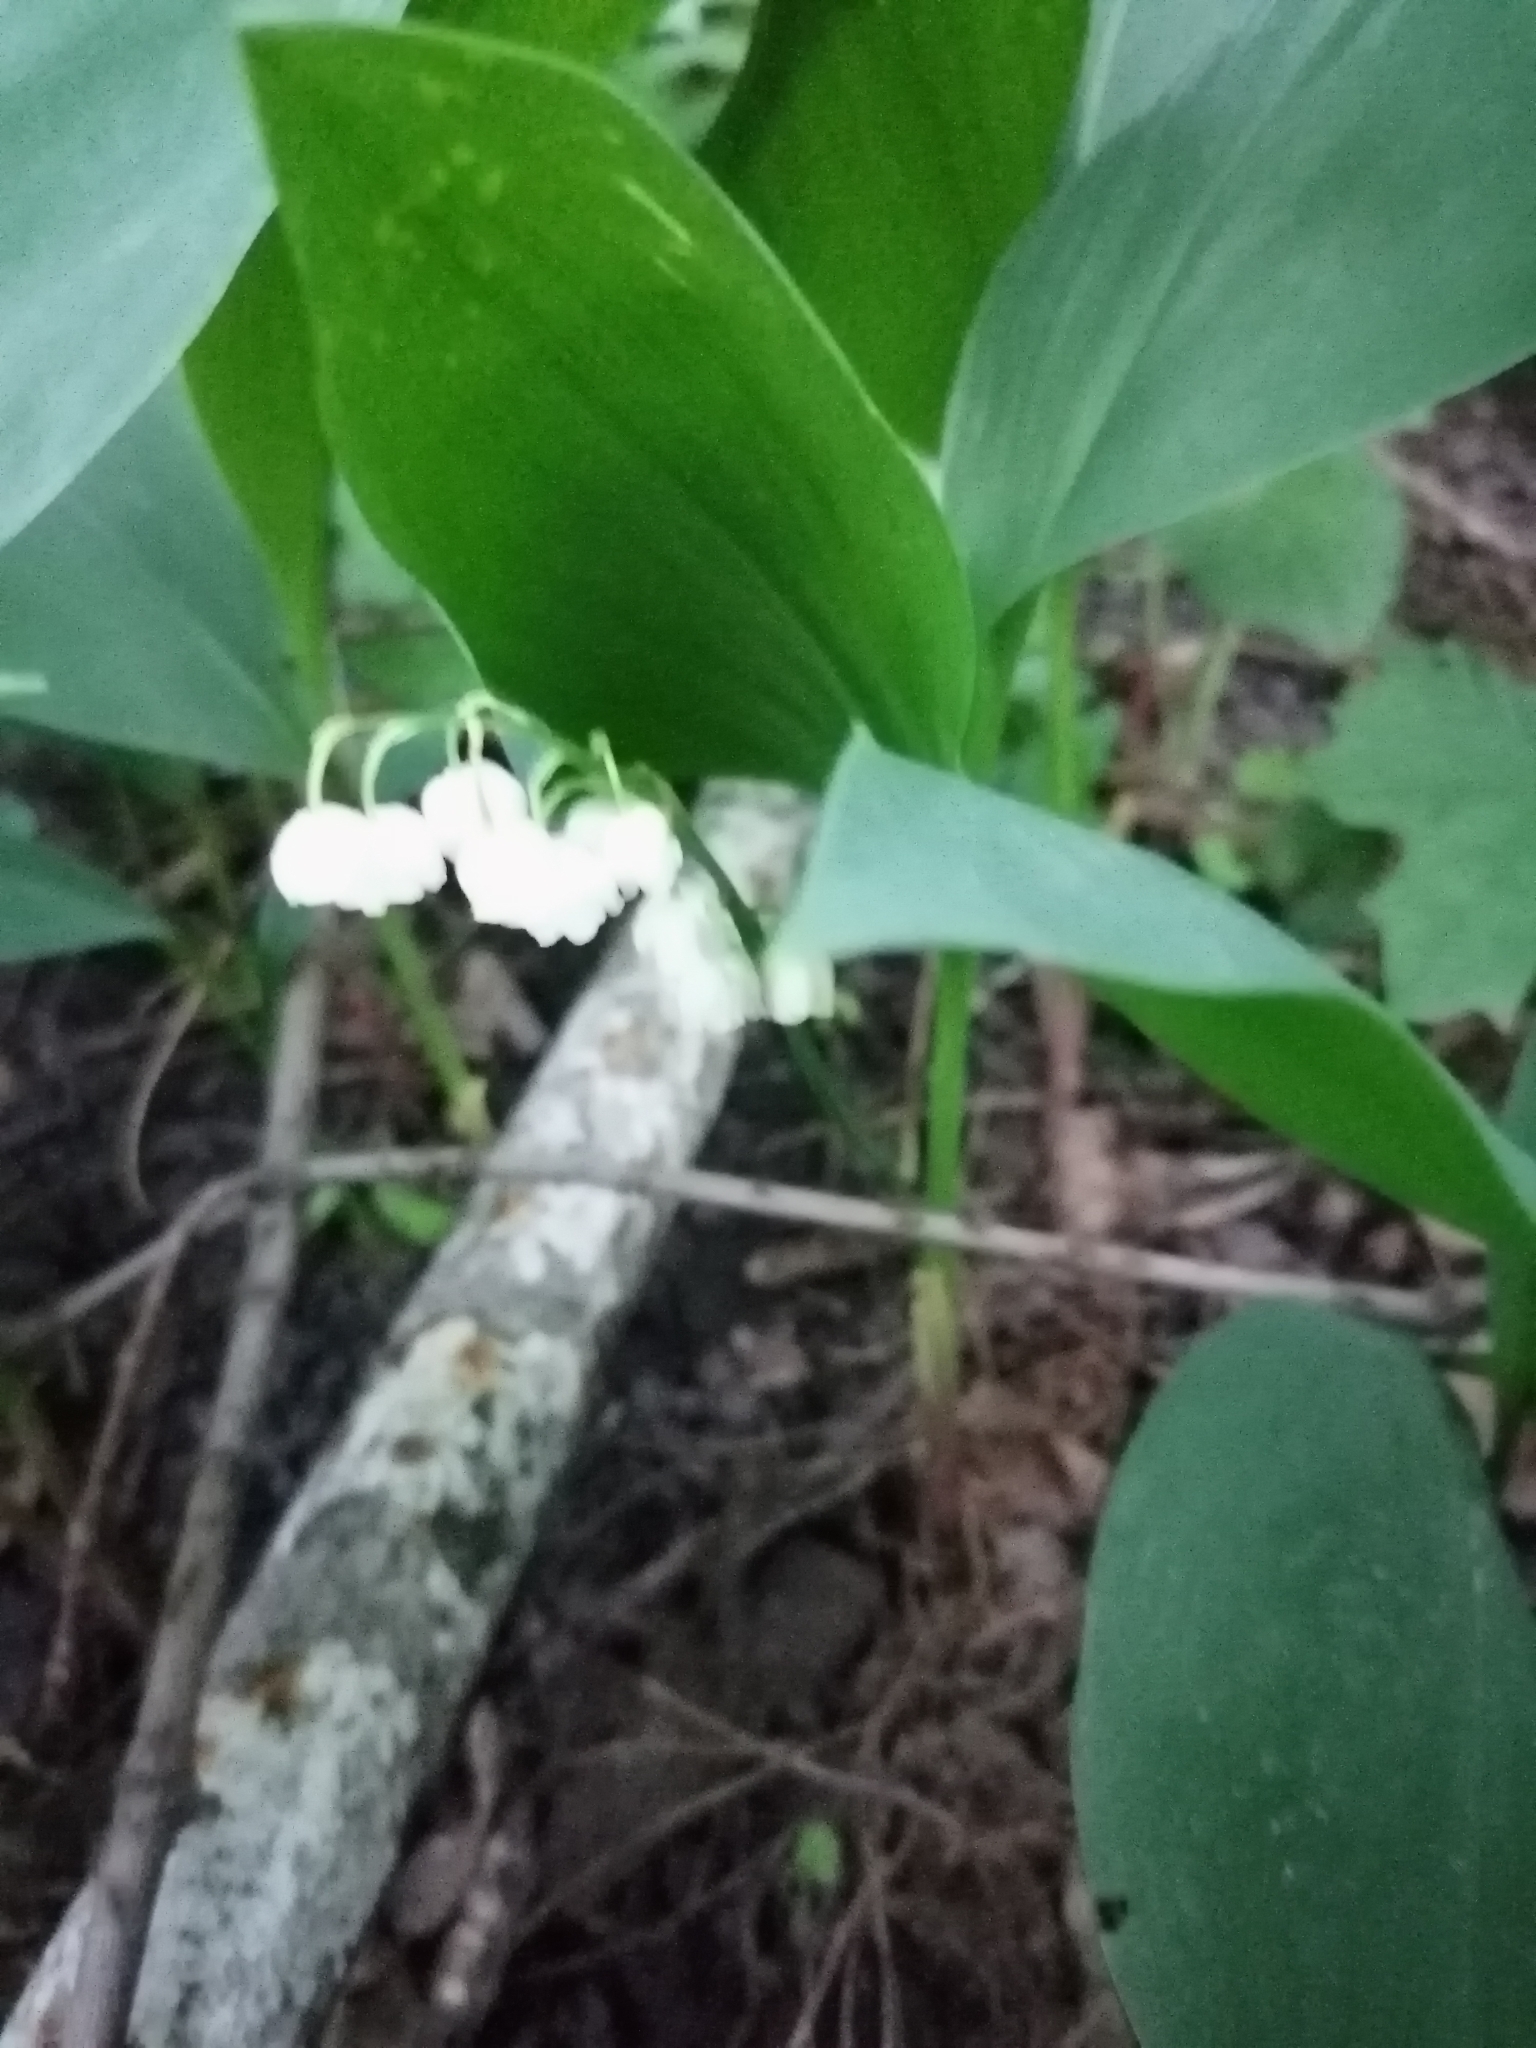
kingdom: Plantae
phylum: Tracheophyta
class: Liliopsida
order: Asparagales
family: Asparagaceae
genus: Convallaria
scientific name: Convallaria majalis
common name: Lily-of-the-valley
